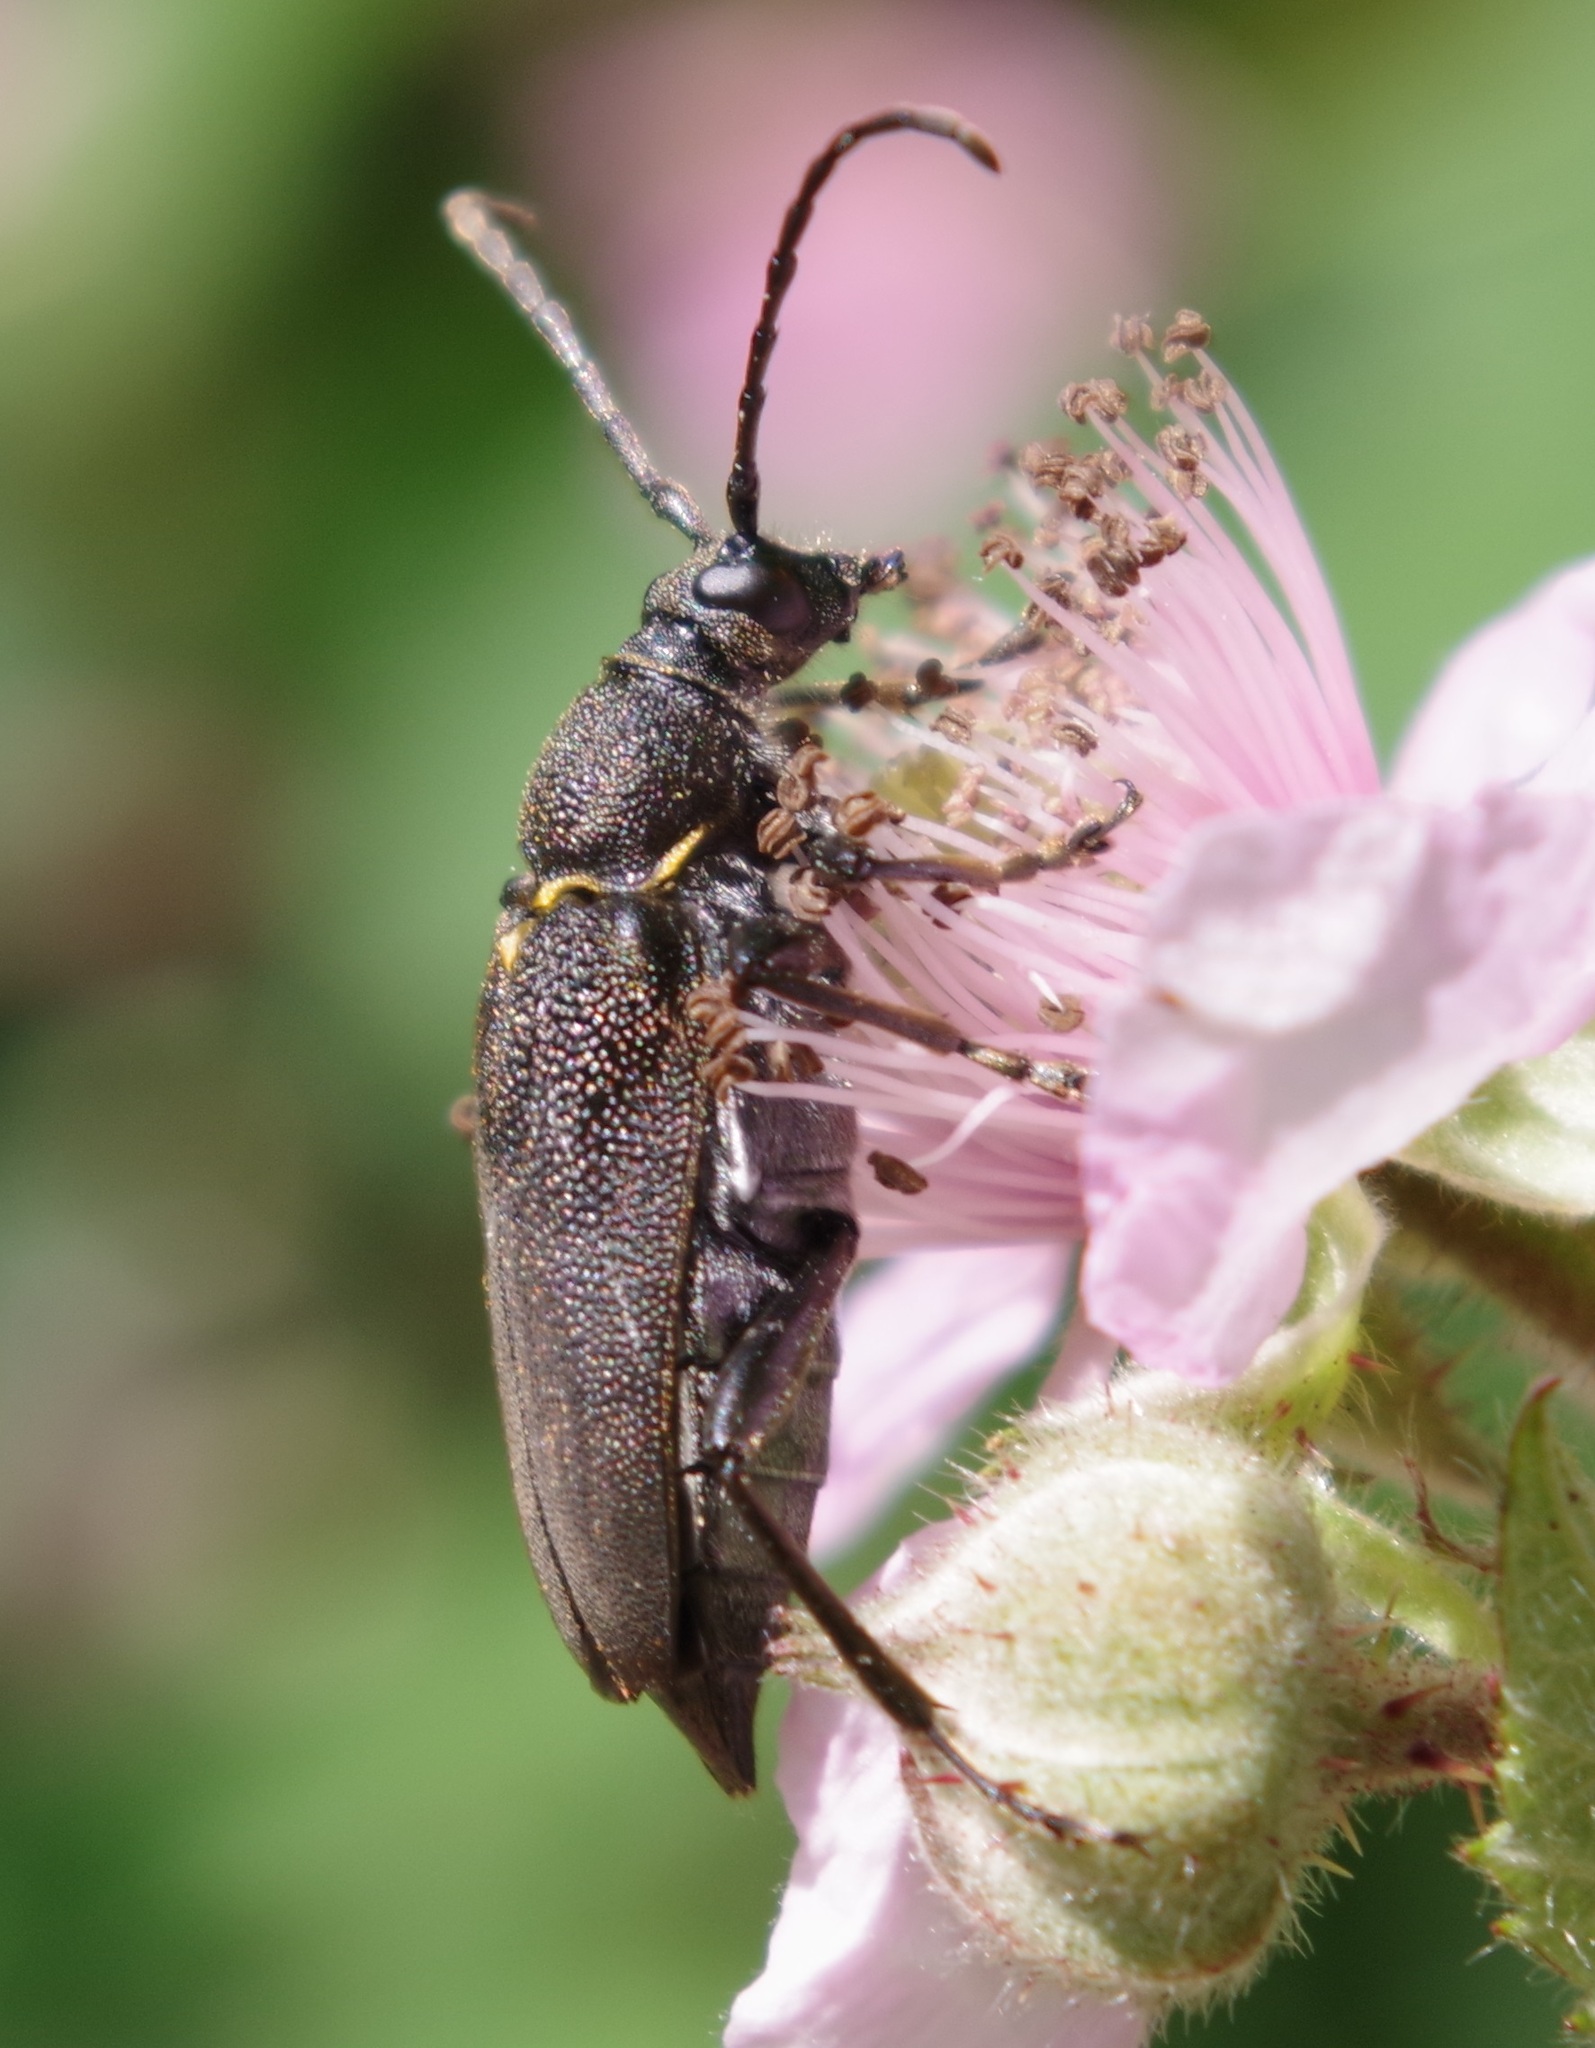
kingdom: Animalia
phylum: Arthropoda
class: Insecta
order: Coleoptera
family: Cerambycidae
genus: Stictoleptura
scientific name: Stictoleptura scutellata
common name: Large black longhorn beetle
